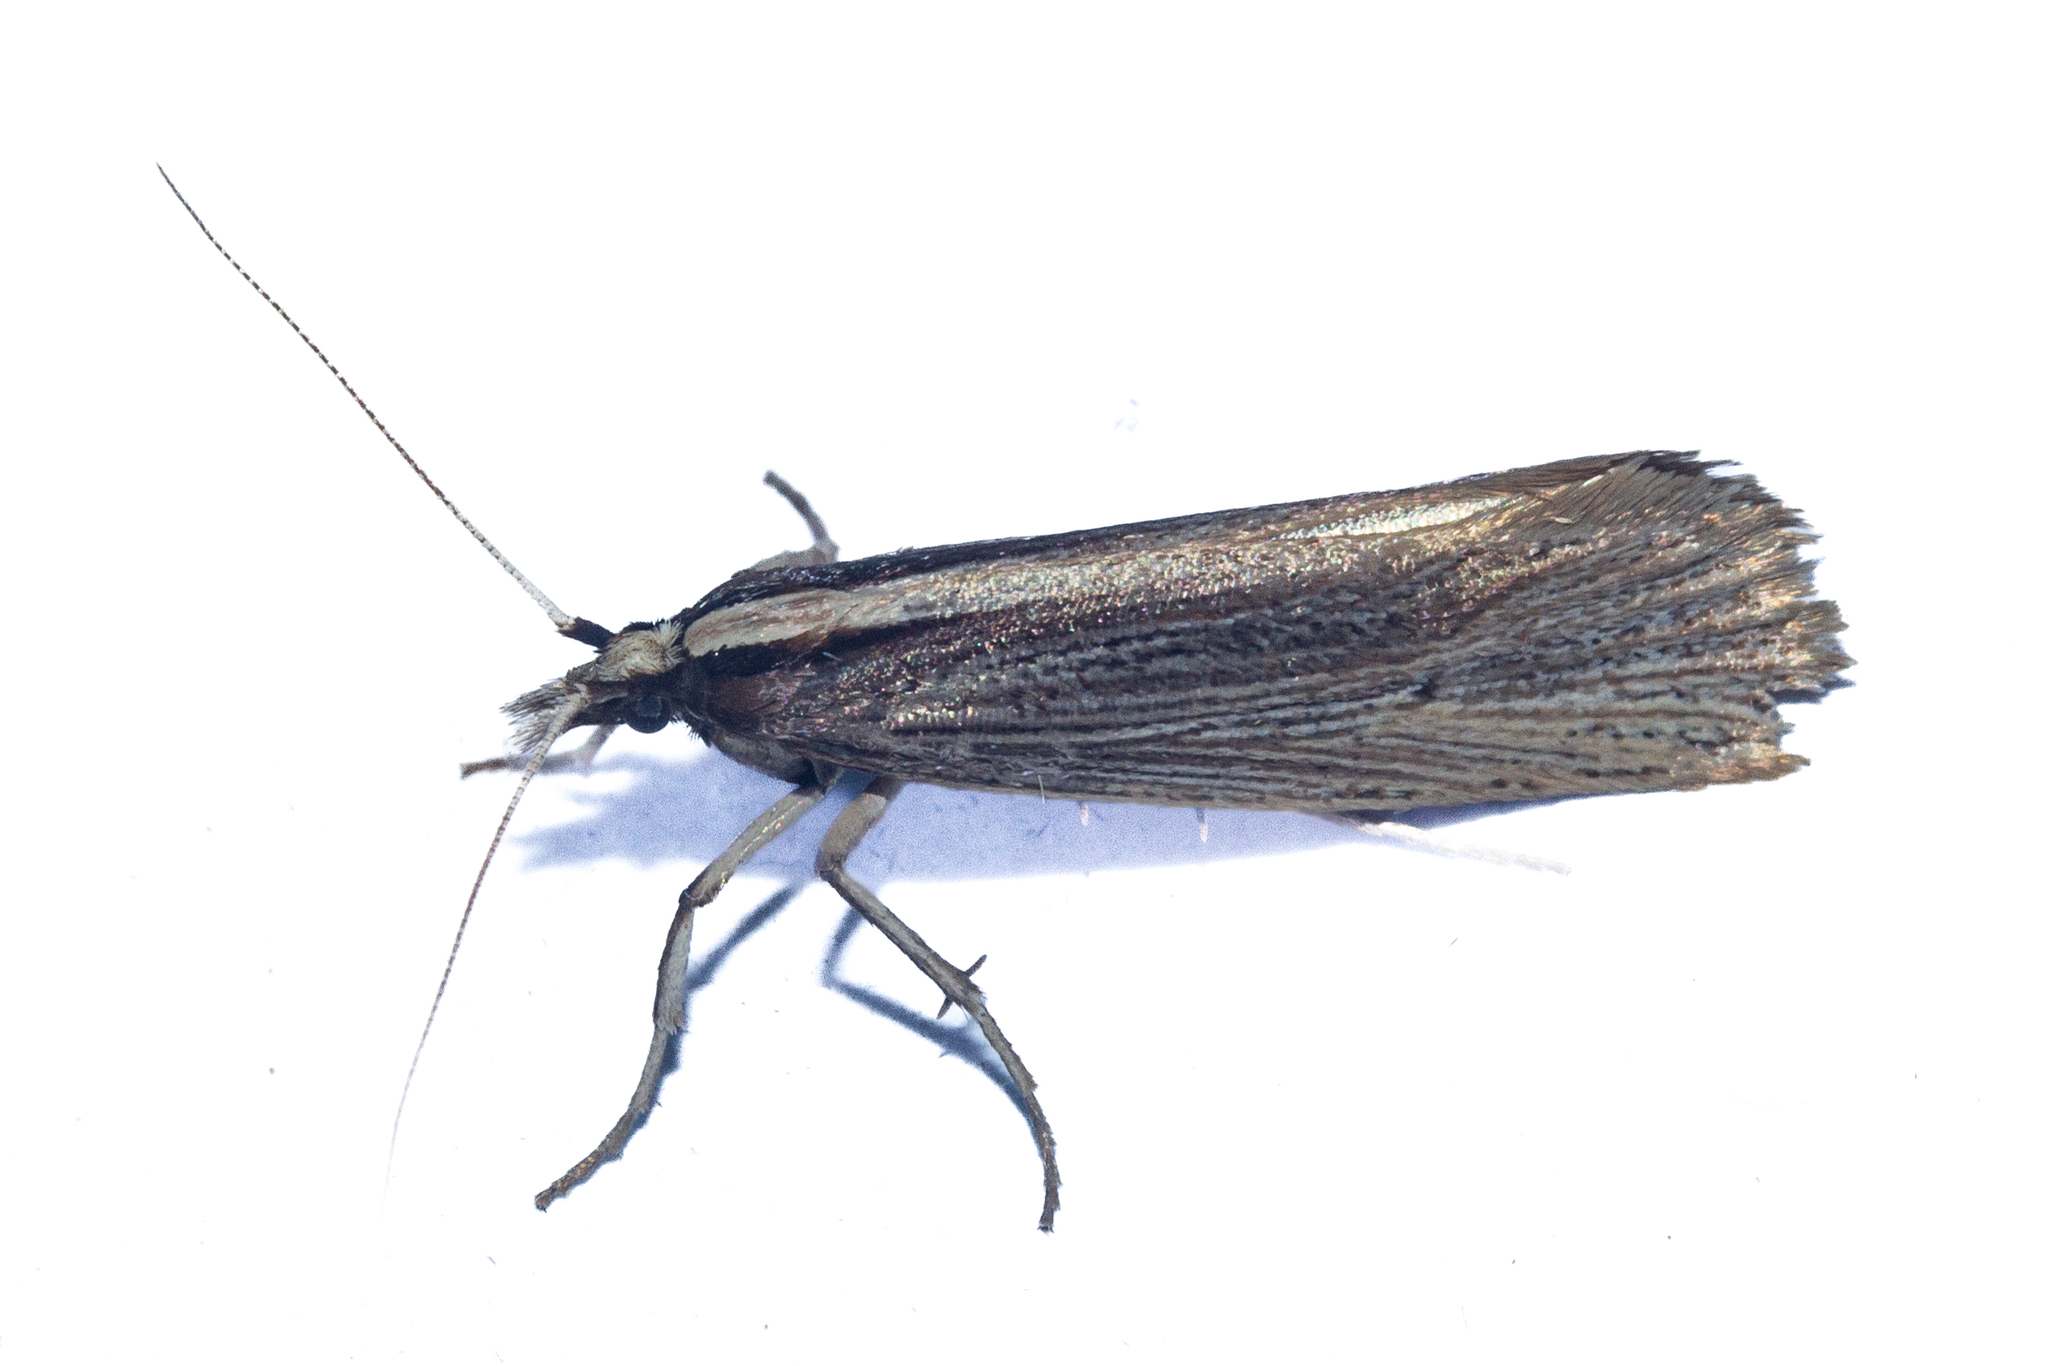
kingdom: Animalia
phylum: Arthropoda
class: Insecta
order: Lepidoptera
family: Plutellidae
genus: Proditrix
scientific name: Proditrix megalynta
